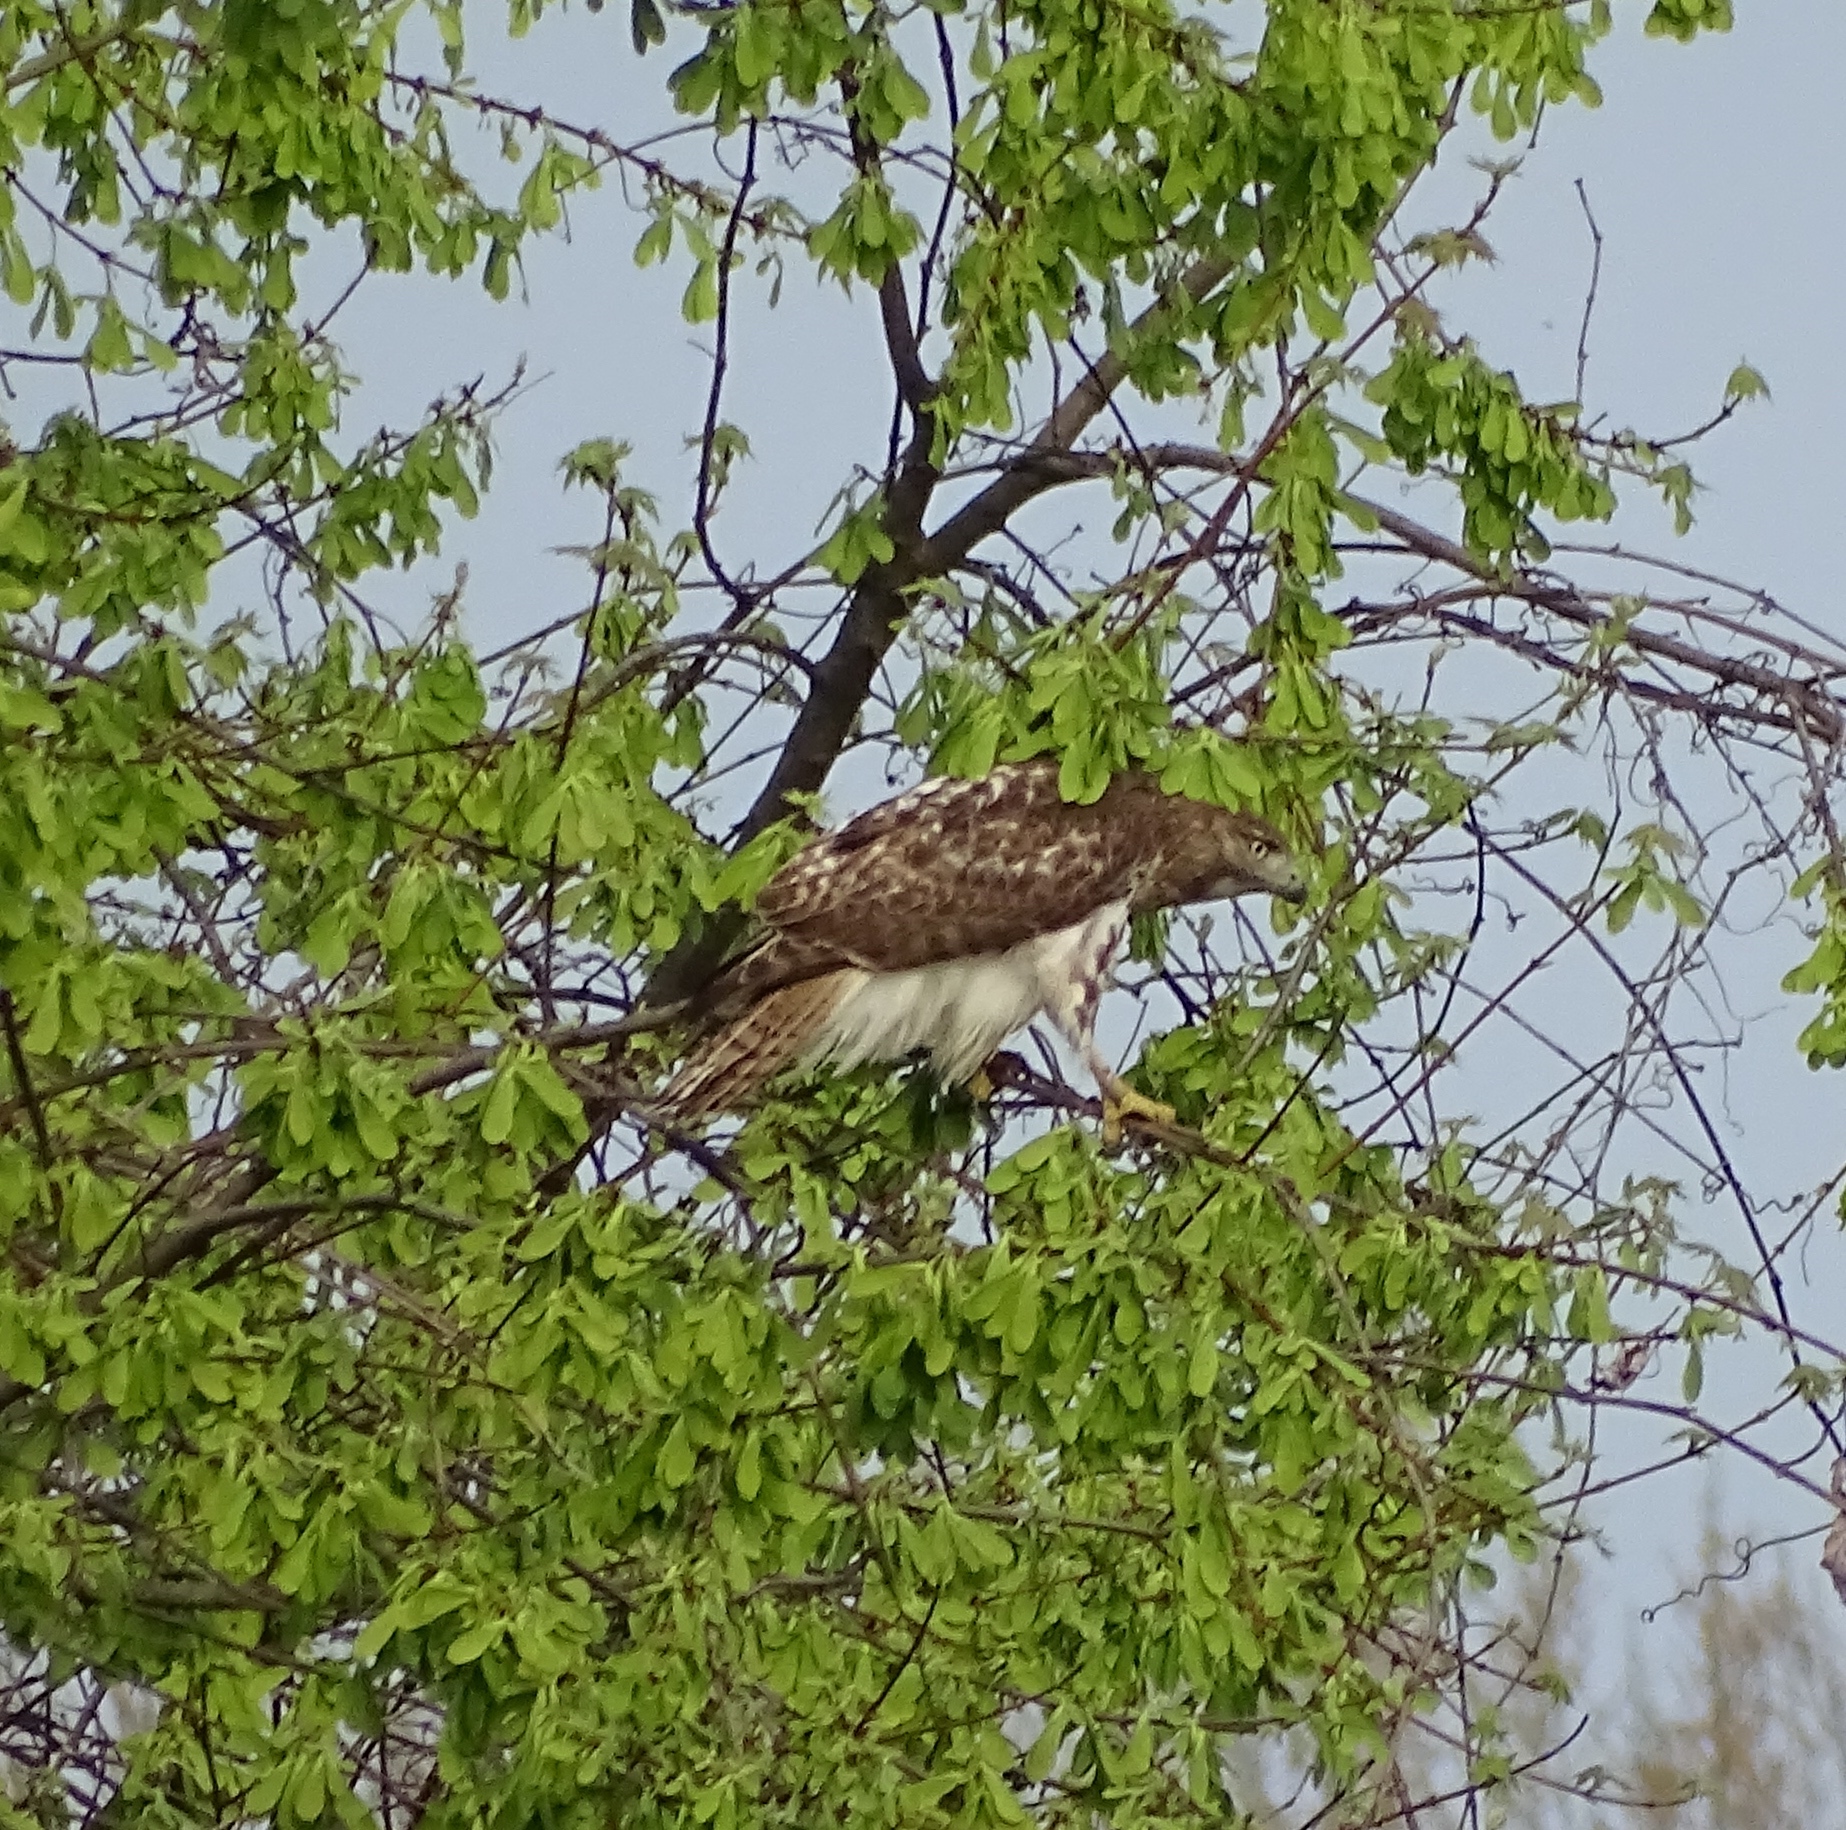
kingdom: Animalia
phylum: Chordata
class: Aves
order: Accipitriformes
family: Accipitridae
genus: Buteo
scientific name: Buteo jamaicensis
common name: Red-tailed hawk
